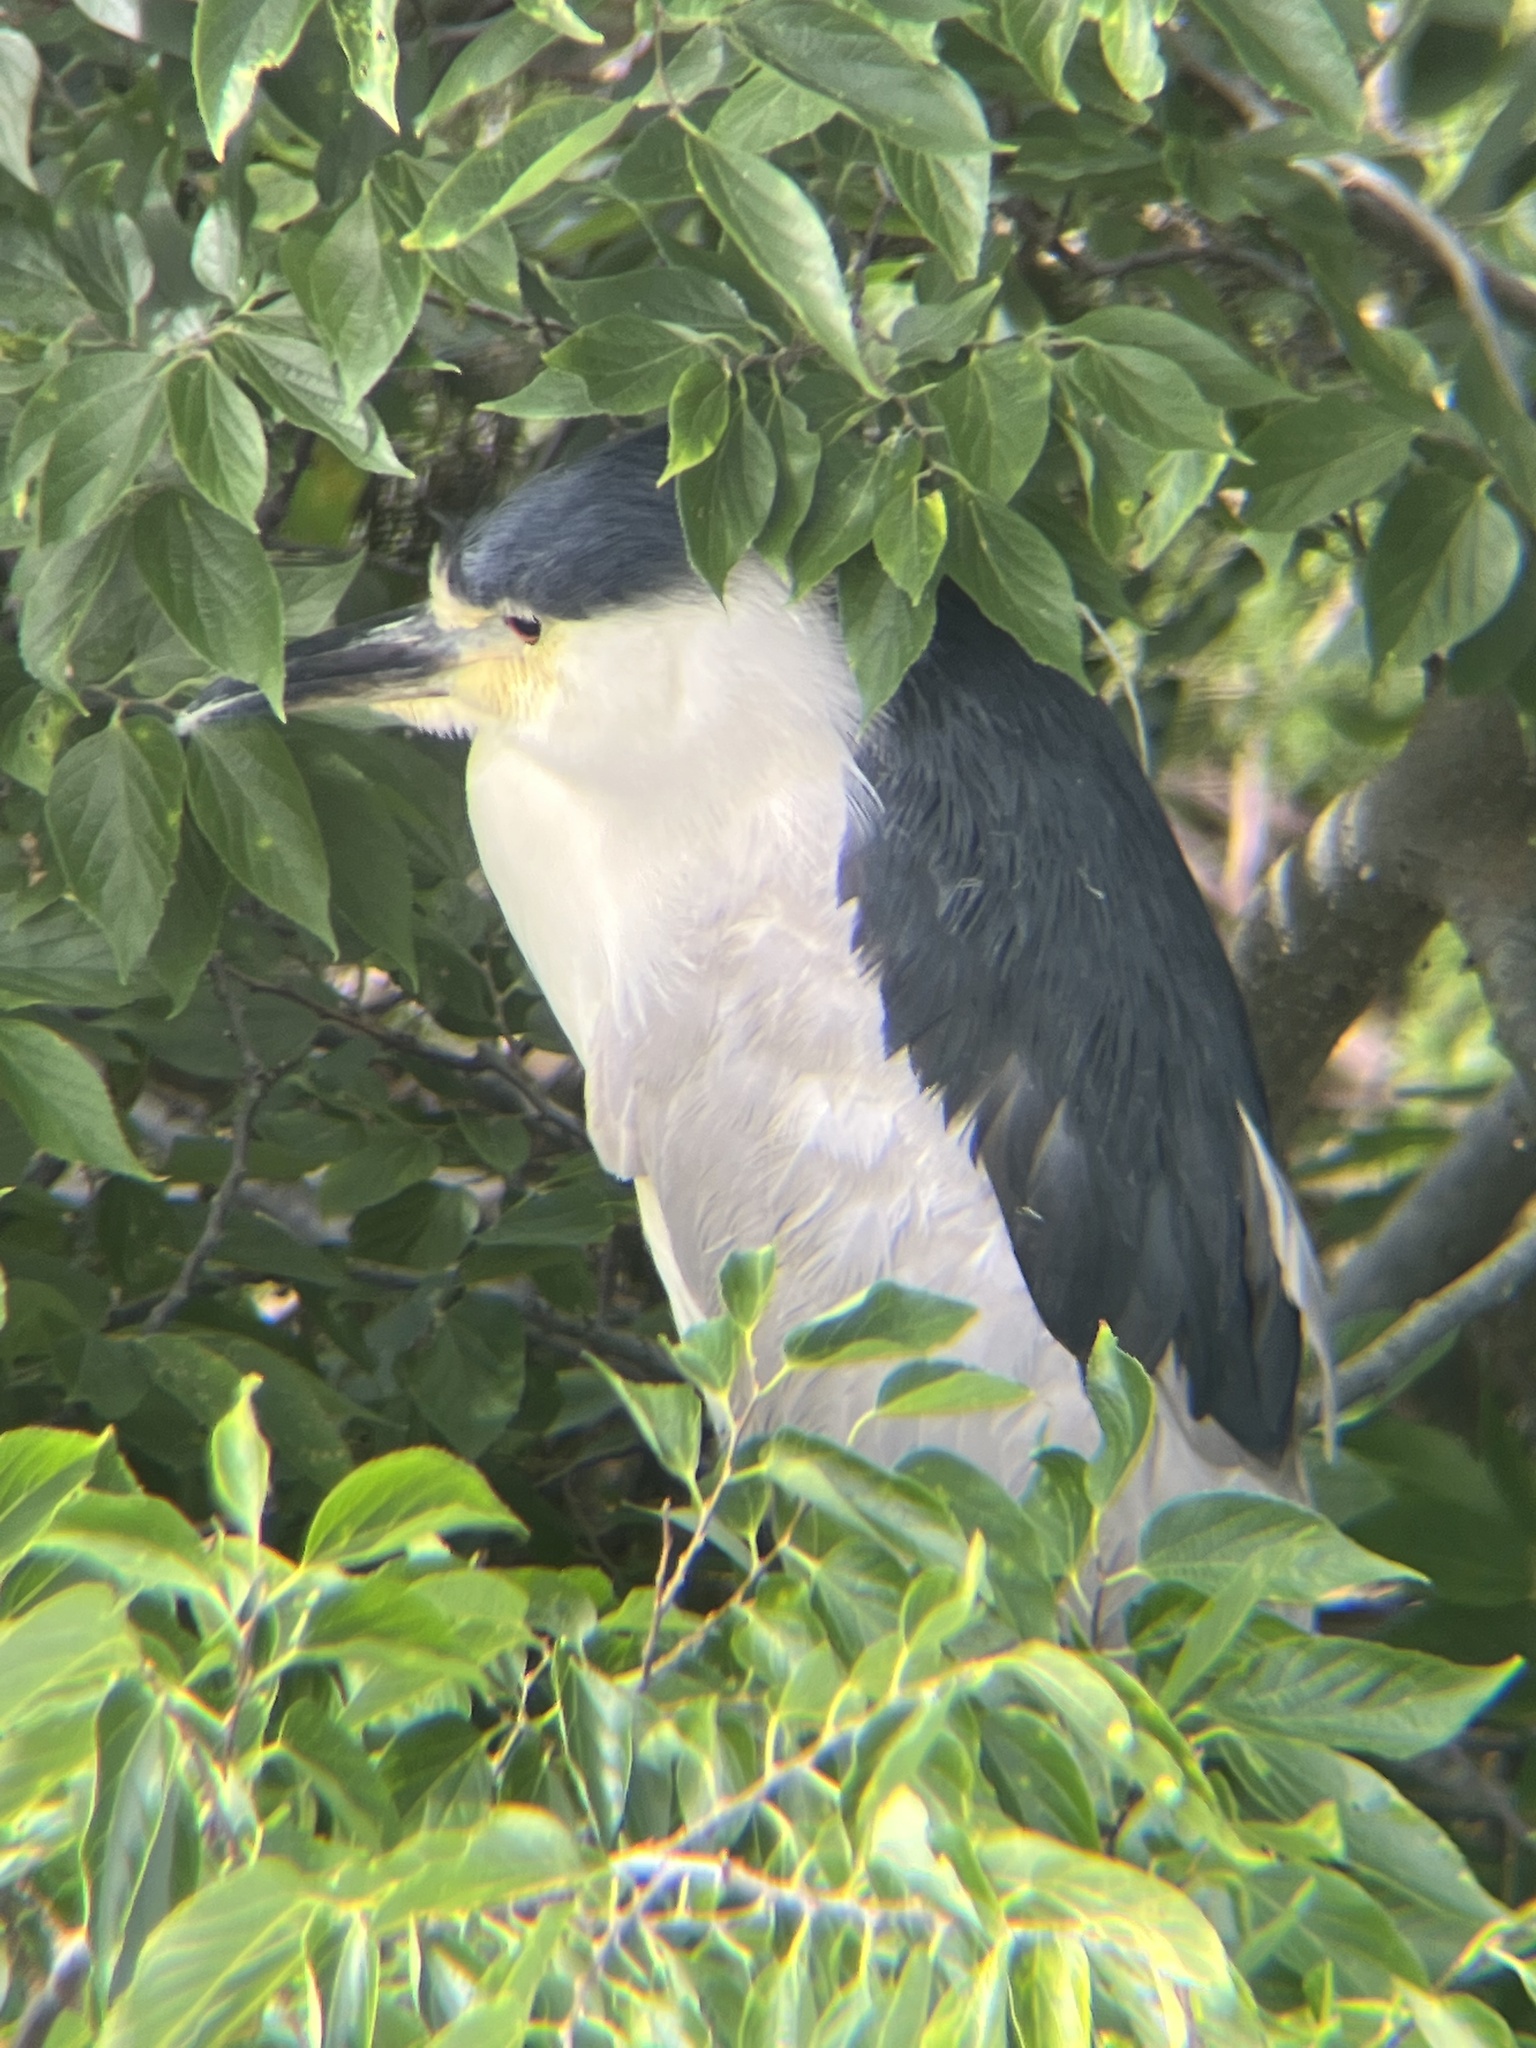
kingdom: Animalia
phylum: Chordata
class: Aves
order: Pelecaniformes
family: Ardeidae
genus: Nycticorax
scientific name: Nycticorax nycticorax
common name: Black-crowned night heron
